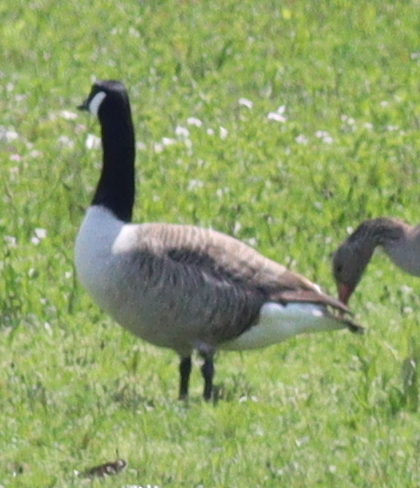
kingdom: Animalia
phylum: Chordata
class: Aves
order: Anseriformes
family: Anatidae
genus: Branta
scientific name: Branta canadensis
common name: Canada goose
